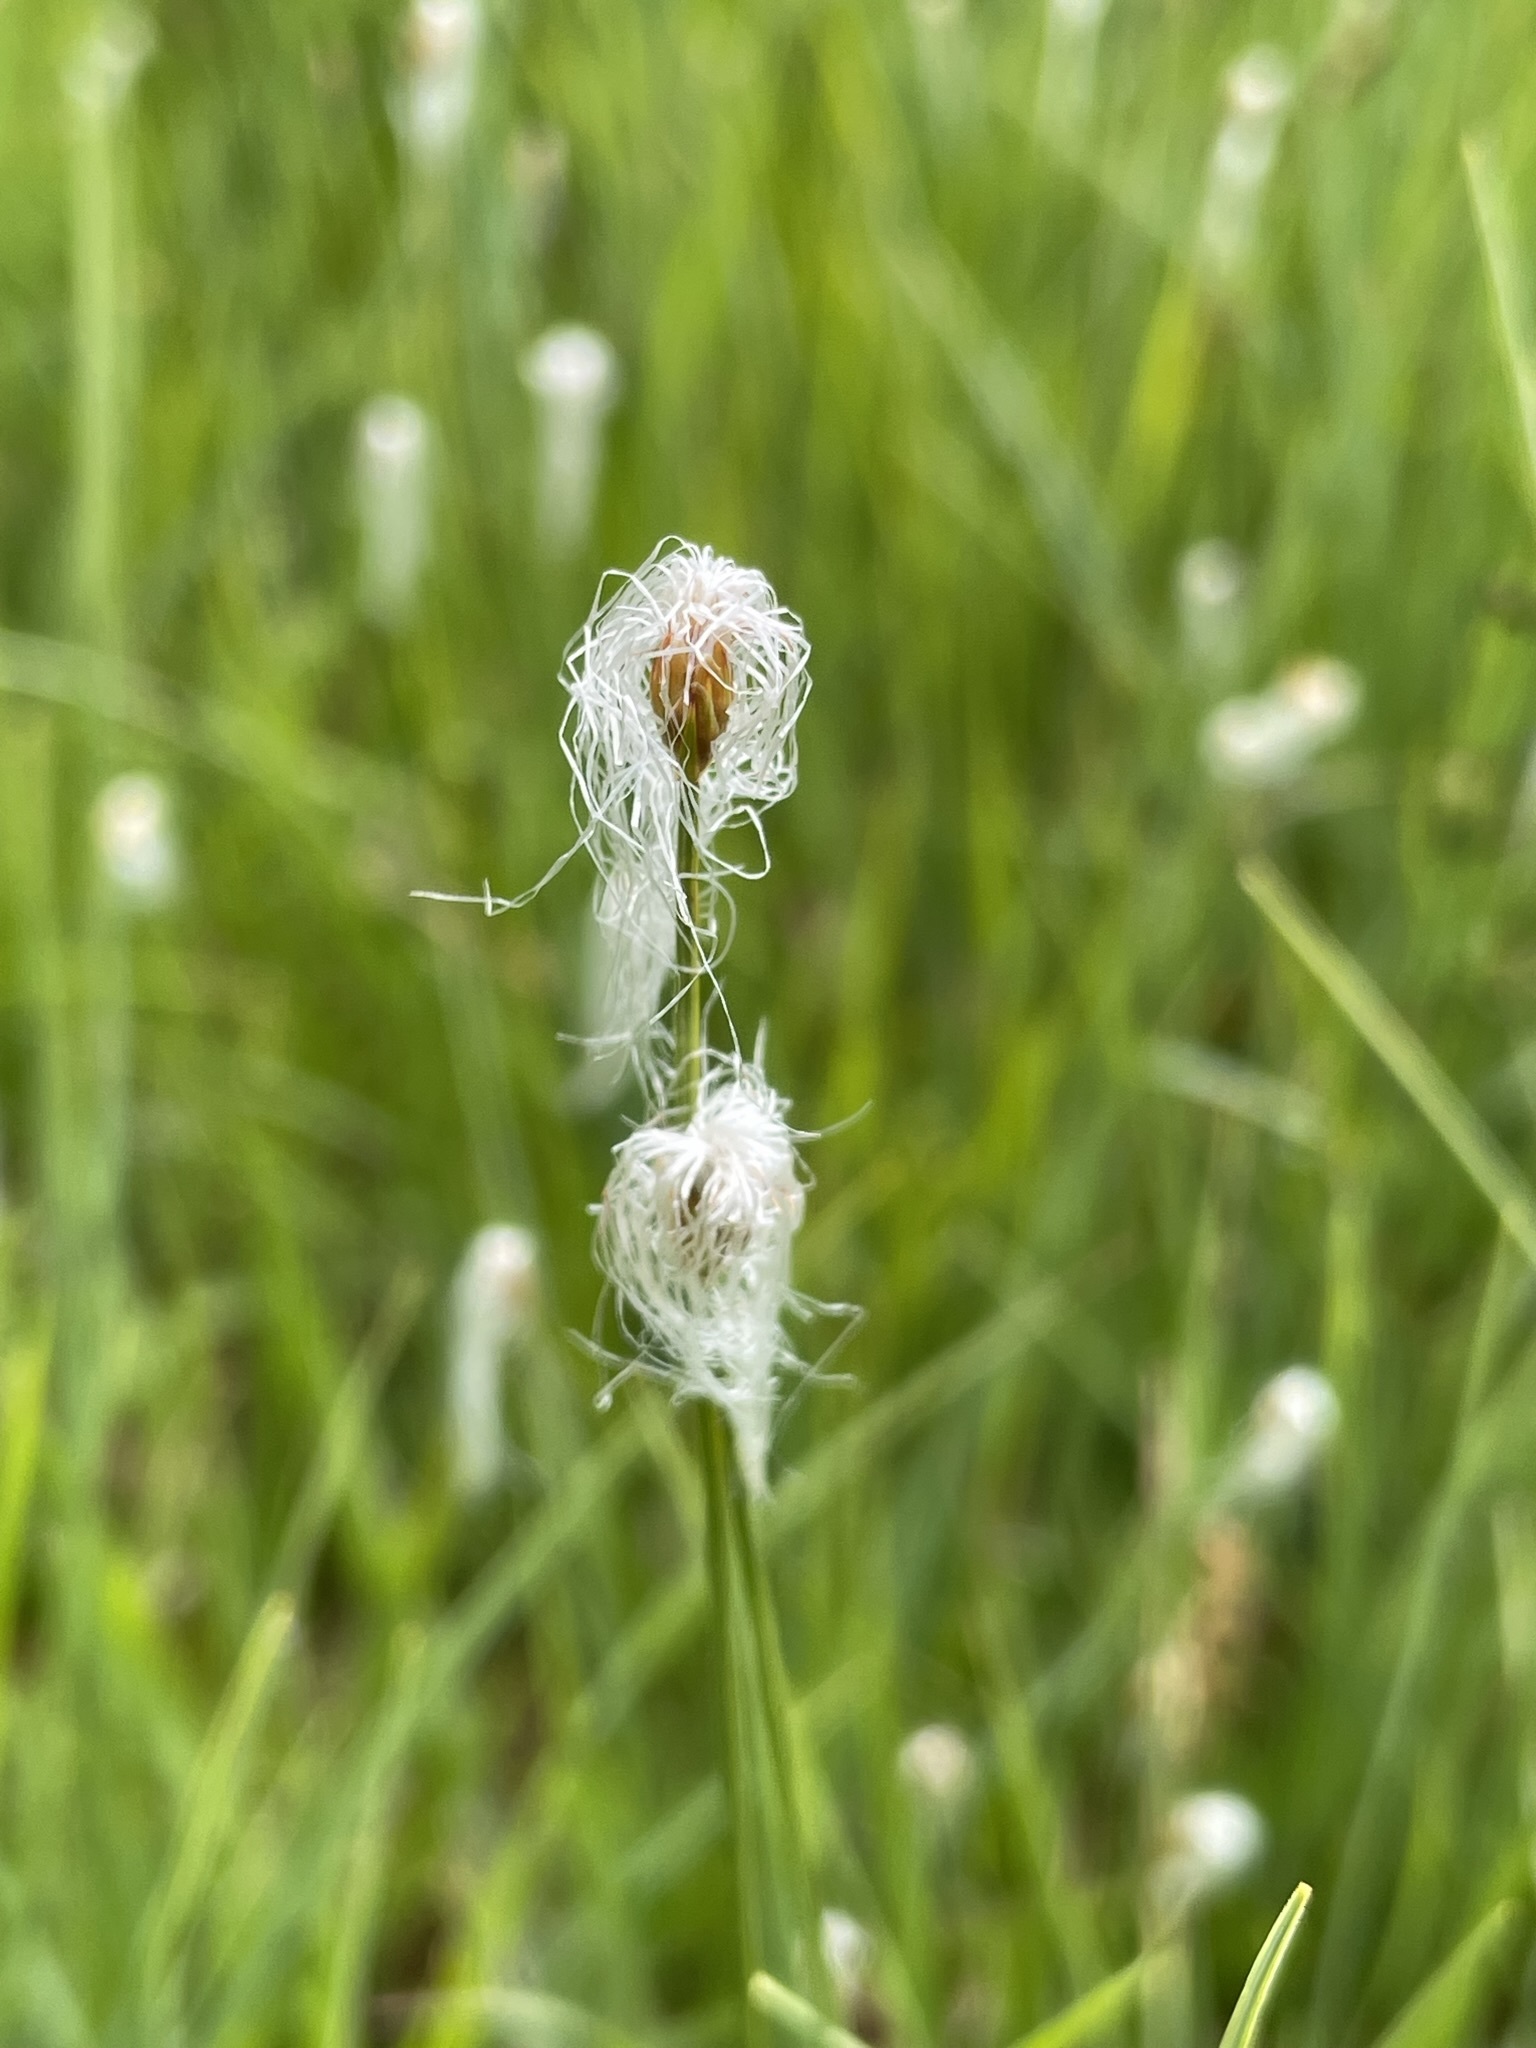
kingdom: Plantae
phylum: Tracheophyta
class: Liliopsida
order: Poales
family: Cyperaceae
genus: Trichophorum
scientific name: Trichophorum alpinum
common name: Alpine bulrush
